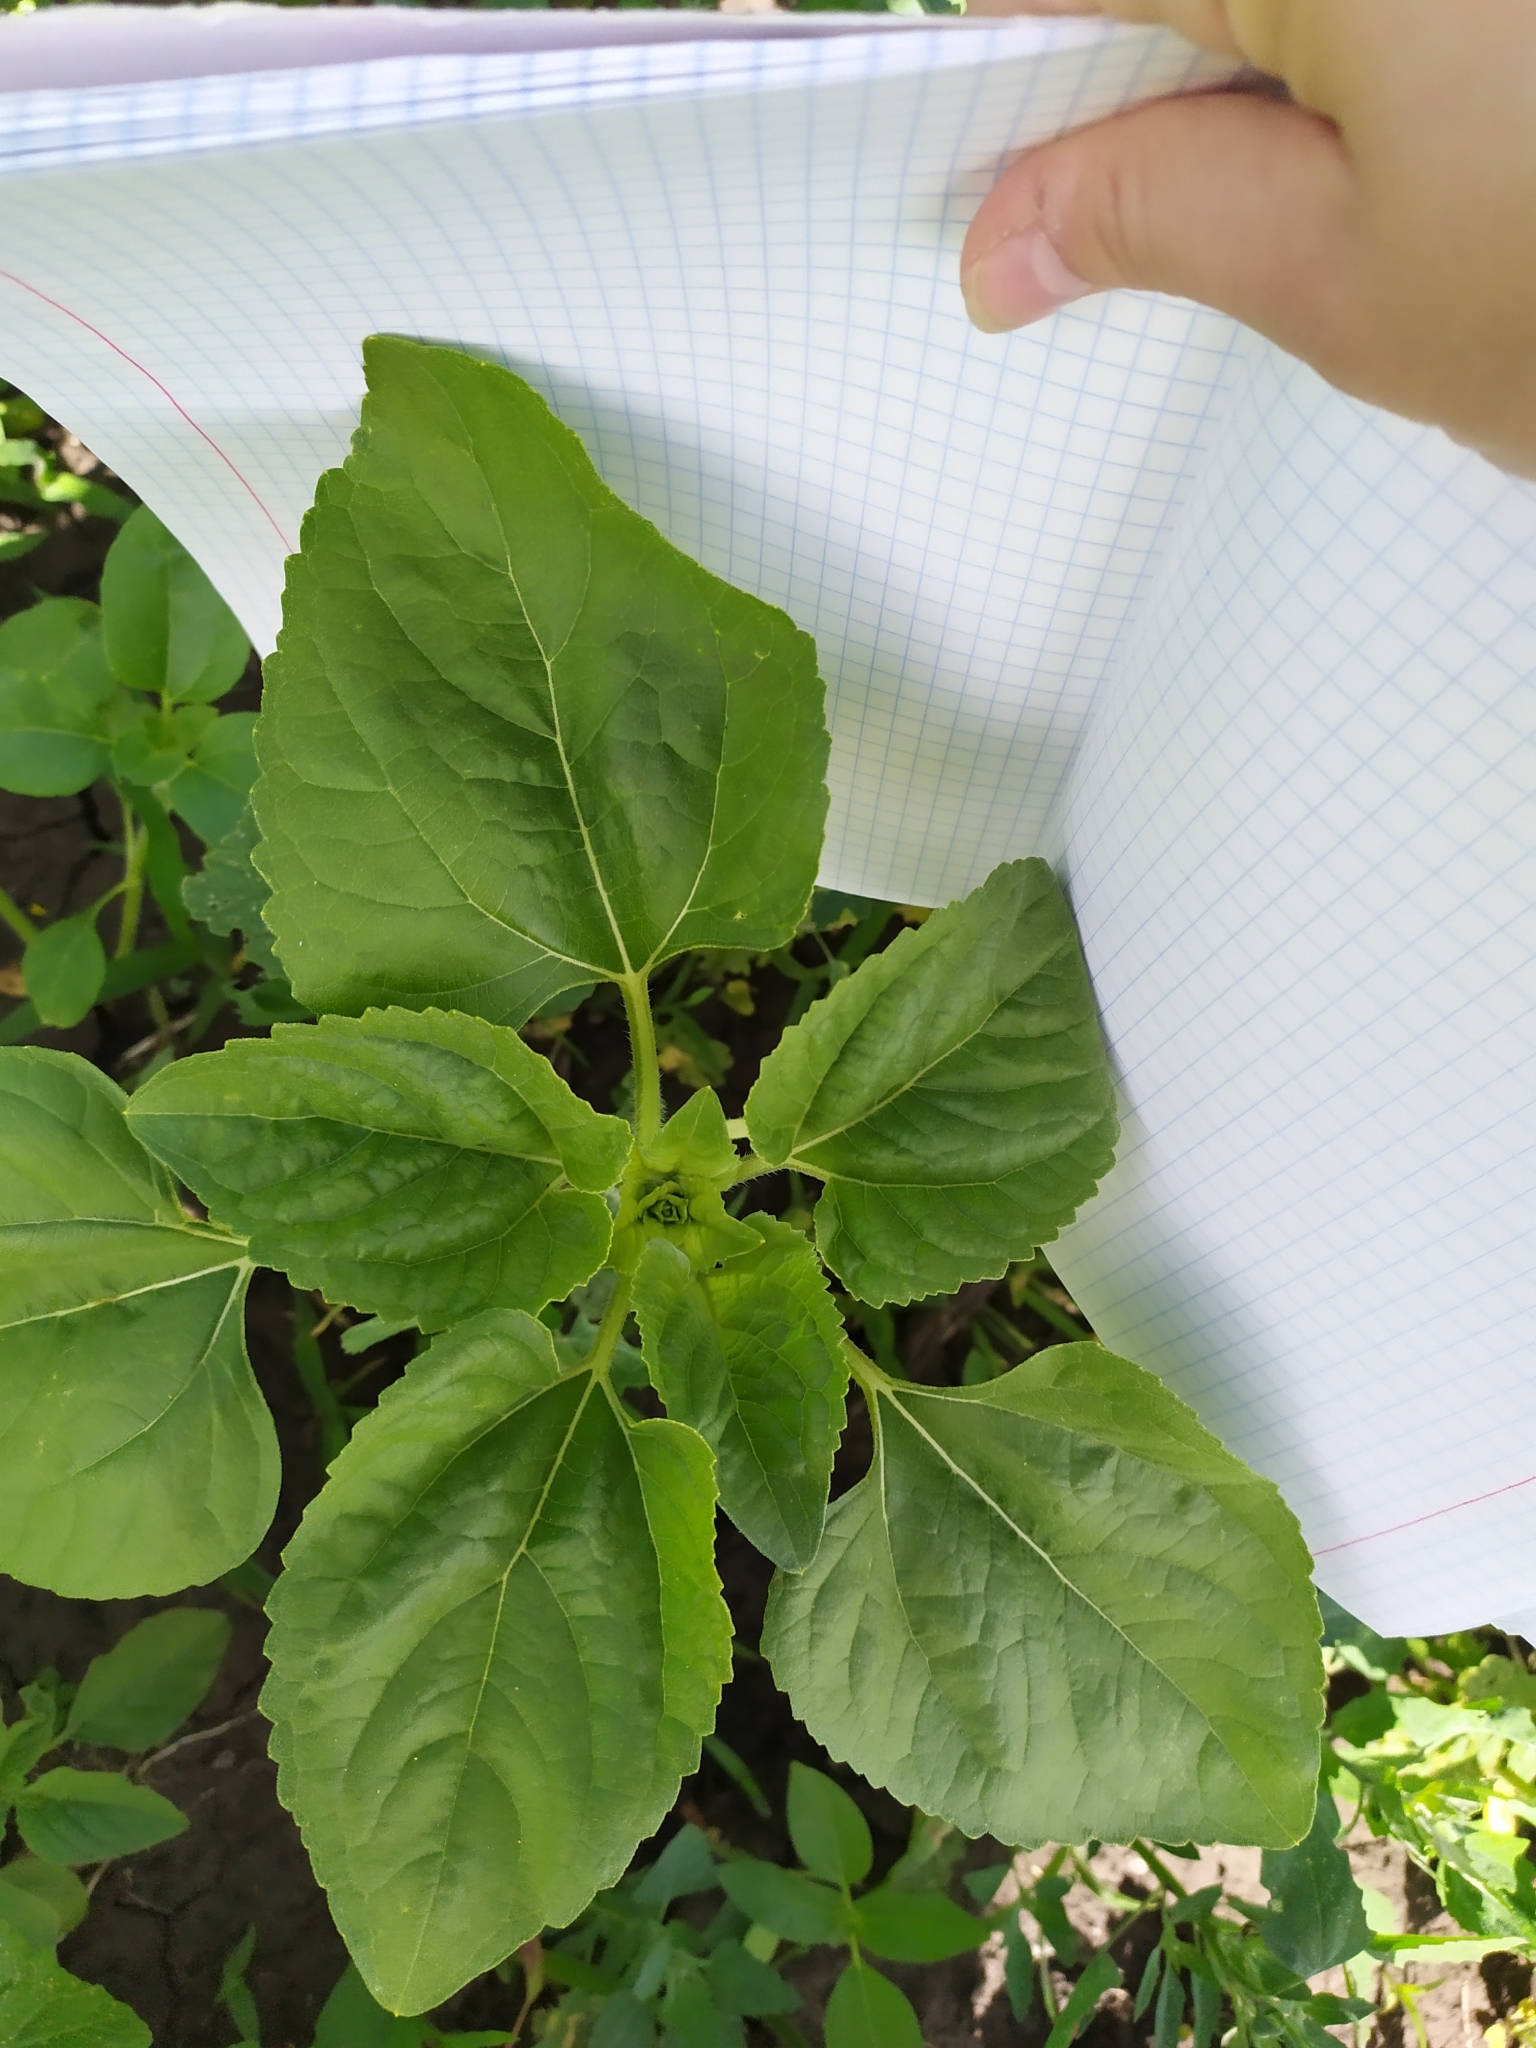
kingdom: Plantae
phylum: Tracheophyta
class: Magnoliopsida
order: Asterales
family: Asteraceae
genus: Helianthus
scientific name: Helianthus annuus
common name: Sunflower
